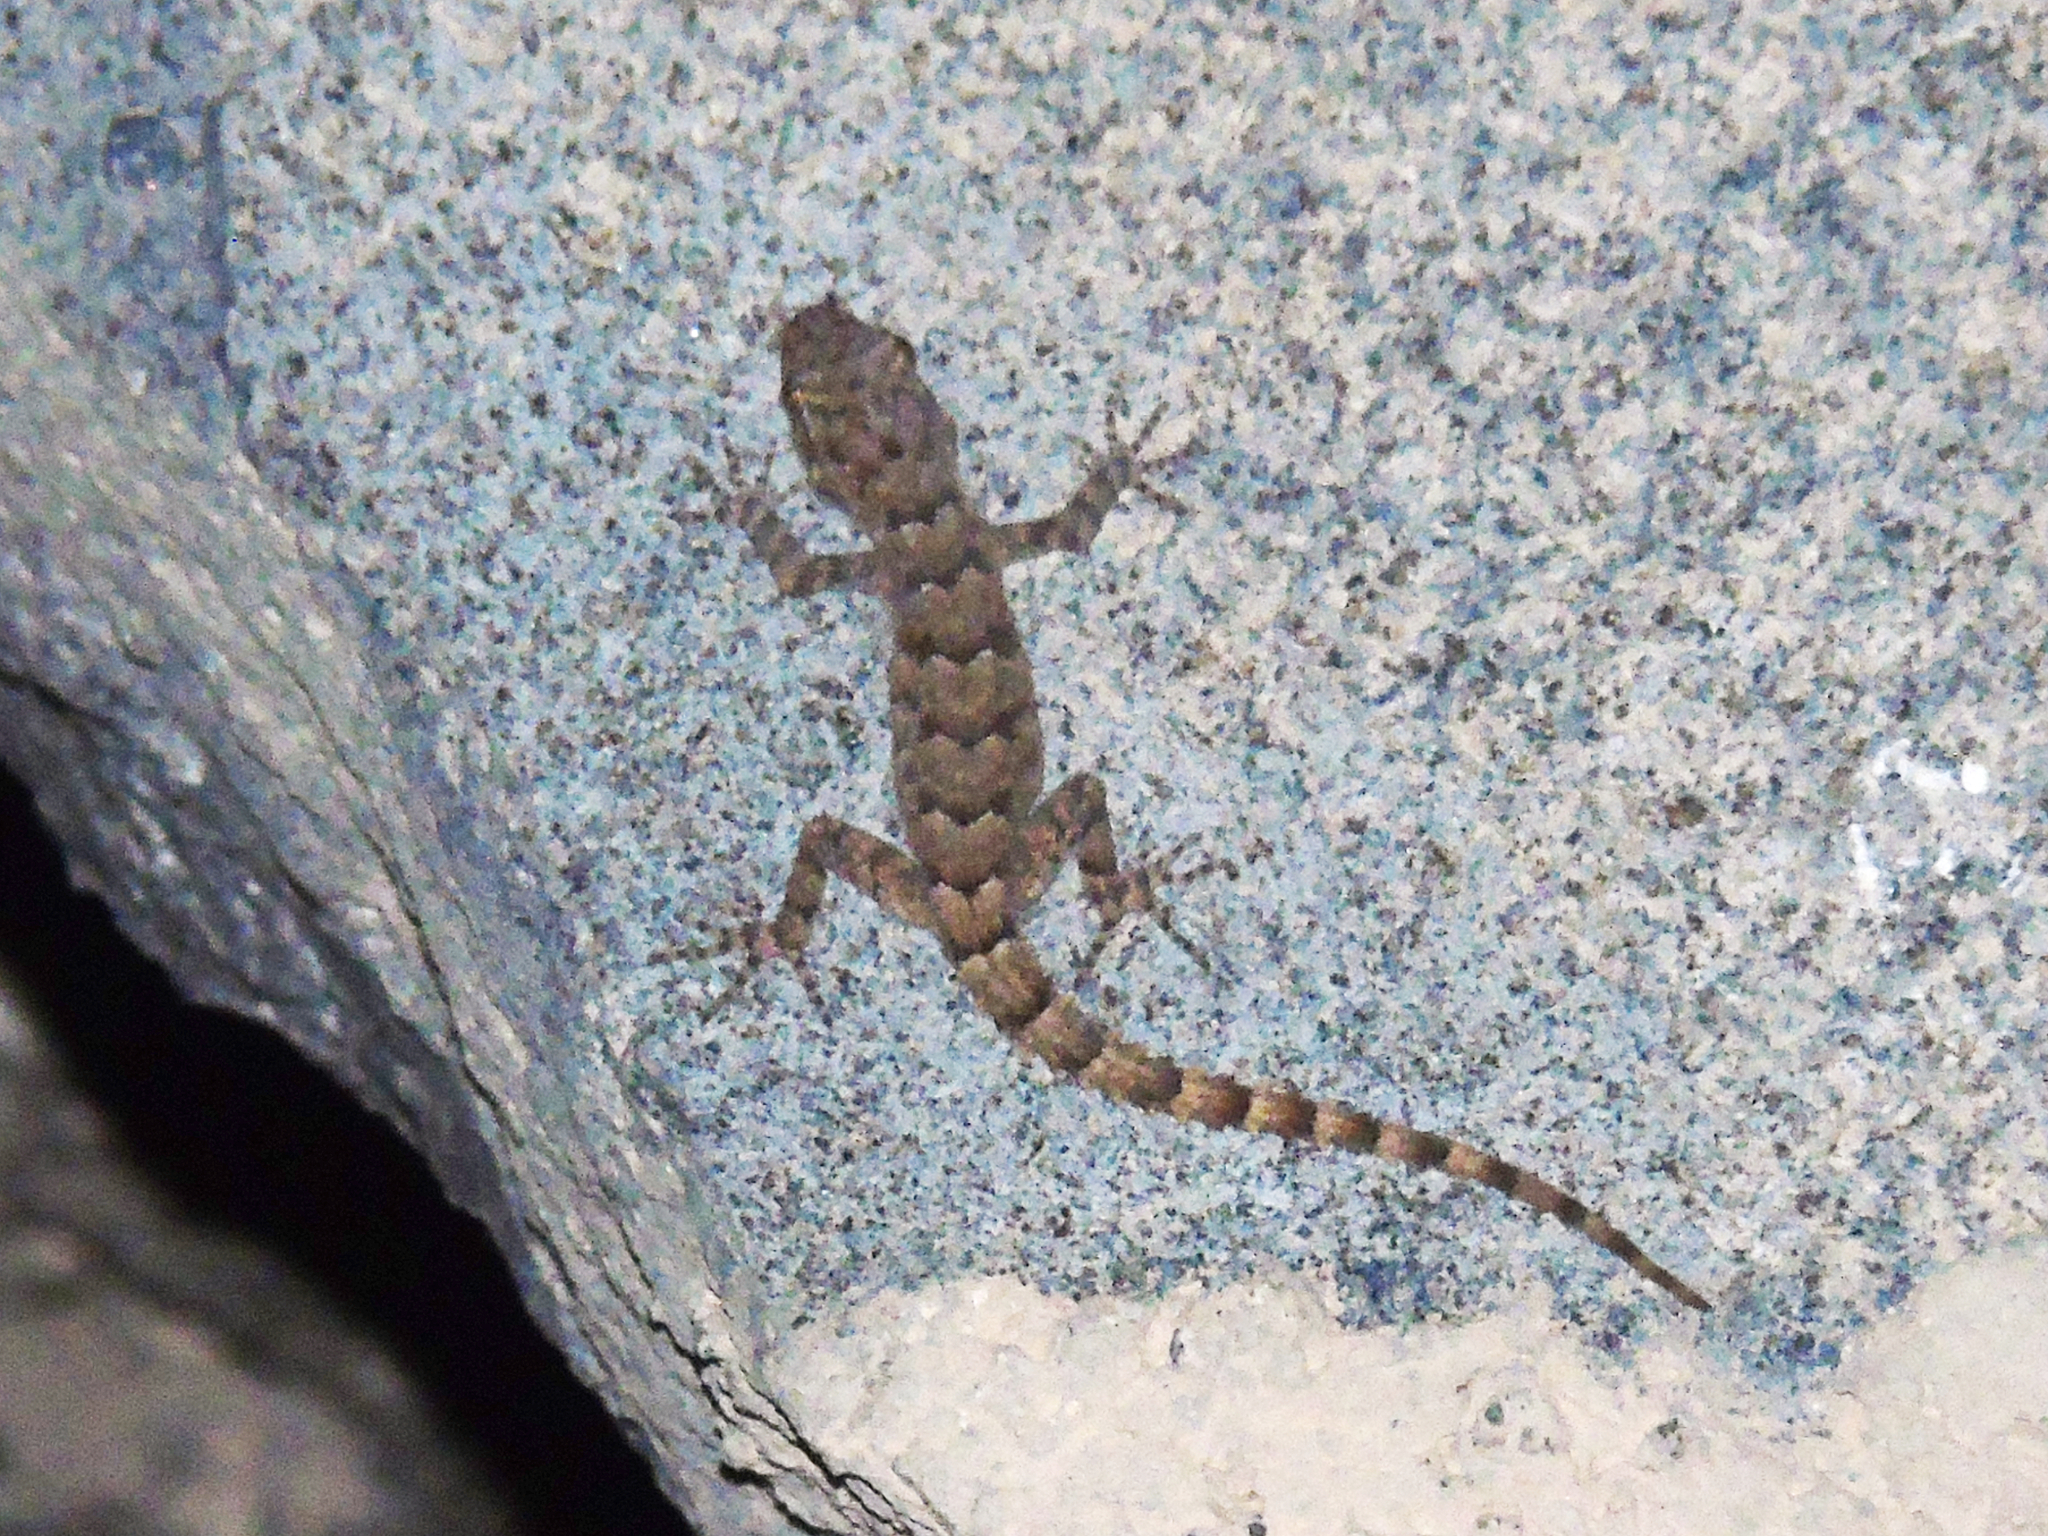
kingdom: Animalia
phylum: Chordata
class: Squamata
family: Gekkonidae
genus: Mediodactylus
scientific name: Mediodactylus heterocercus
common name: Asia minor thin-toed gecko
